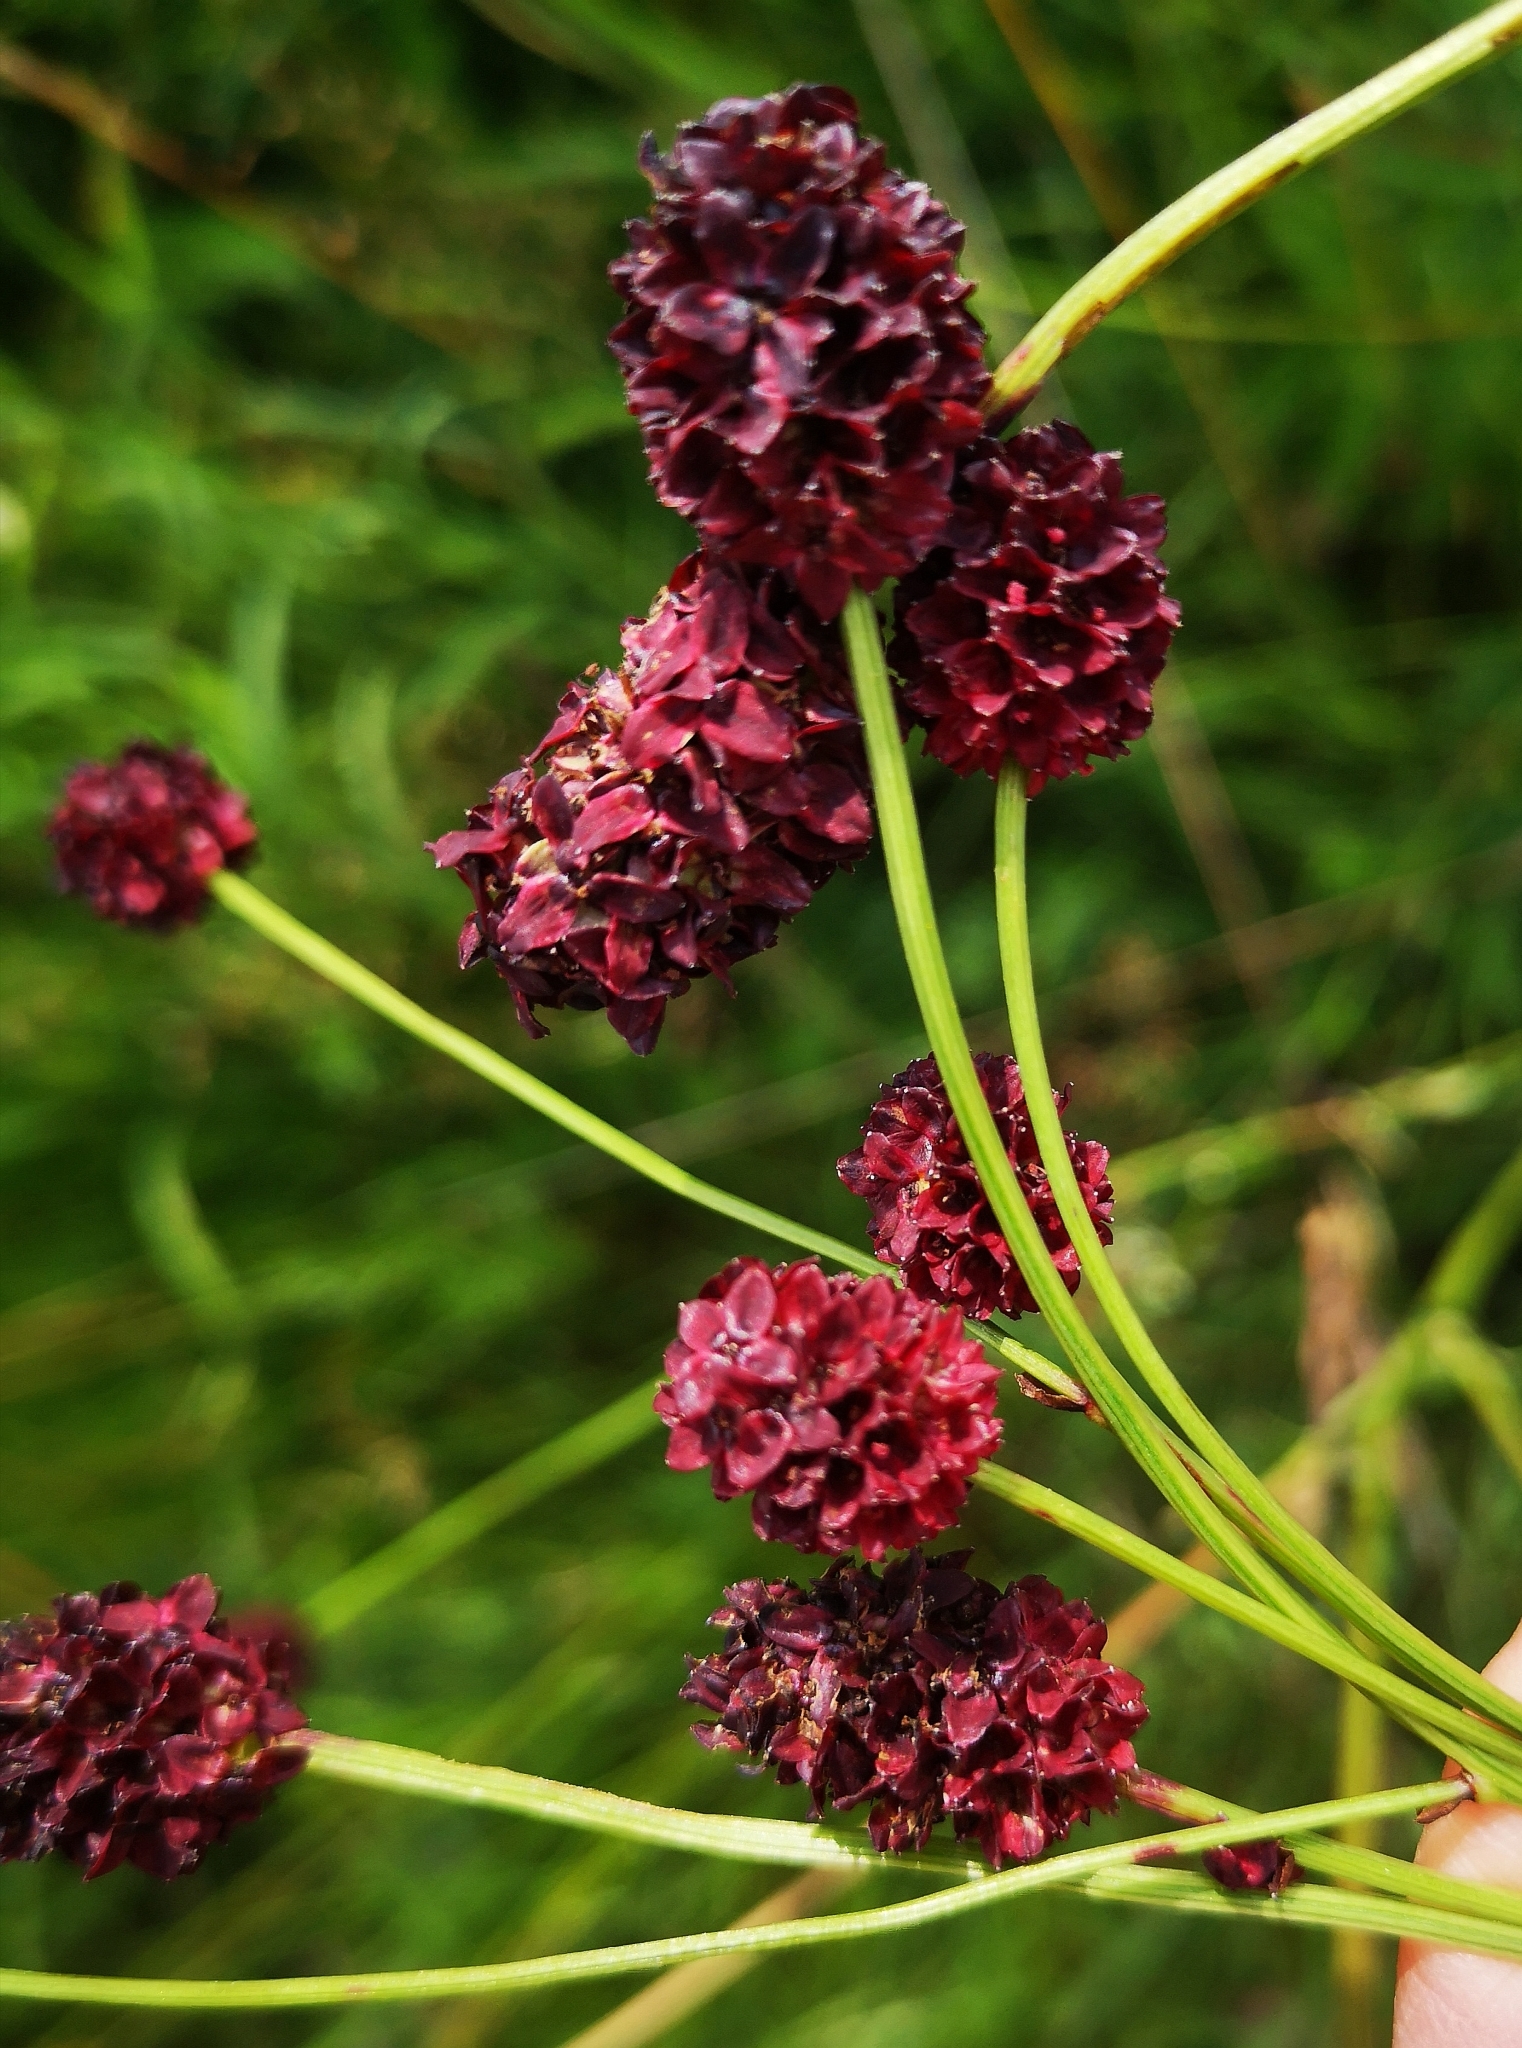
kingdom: Plantae
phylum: Tracheophyta
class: Magnoliopsida
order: Rosales
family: Rosaceae
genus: Sanguisorba
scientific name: Sanguisorba officinalis
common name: Great burnet
